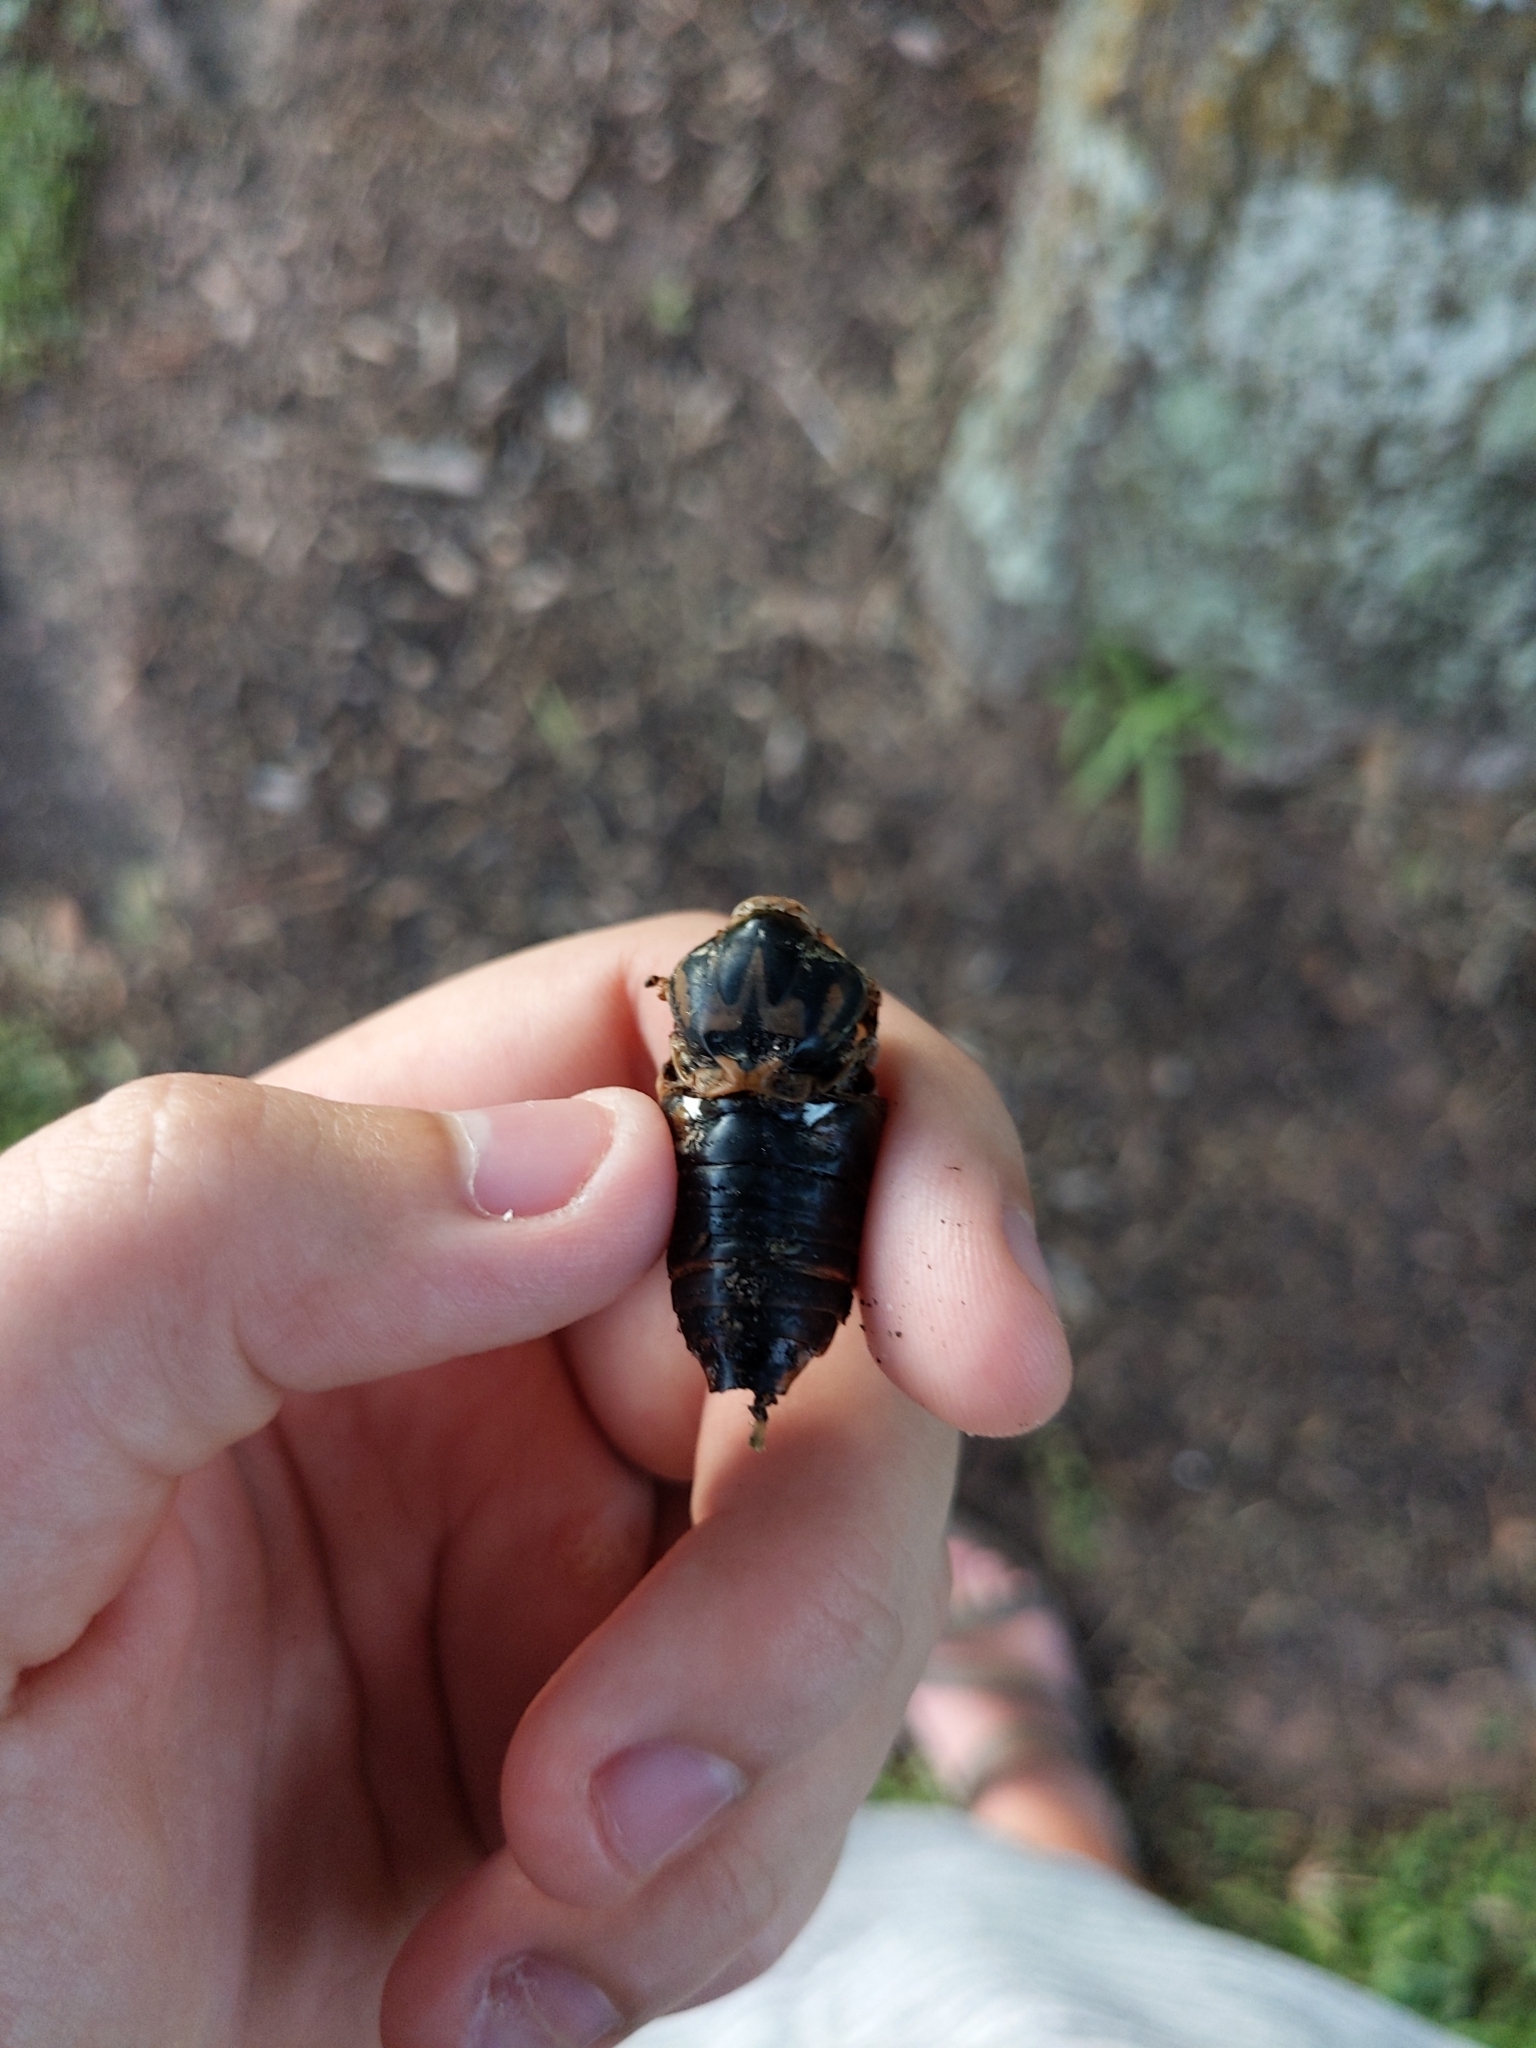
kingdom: Animalia
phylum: Arthropoda
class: Insecta
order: Hemiptera
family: Cicadidae
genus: Megatibicen
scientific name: Megatibicen resh
